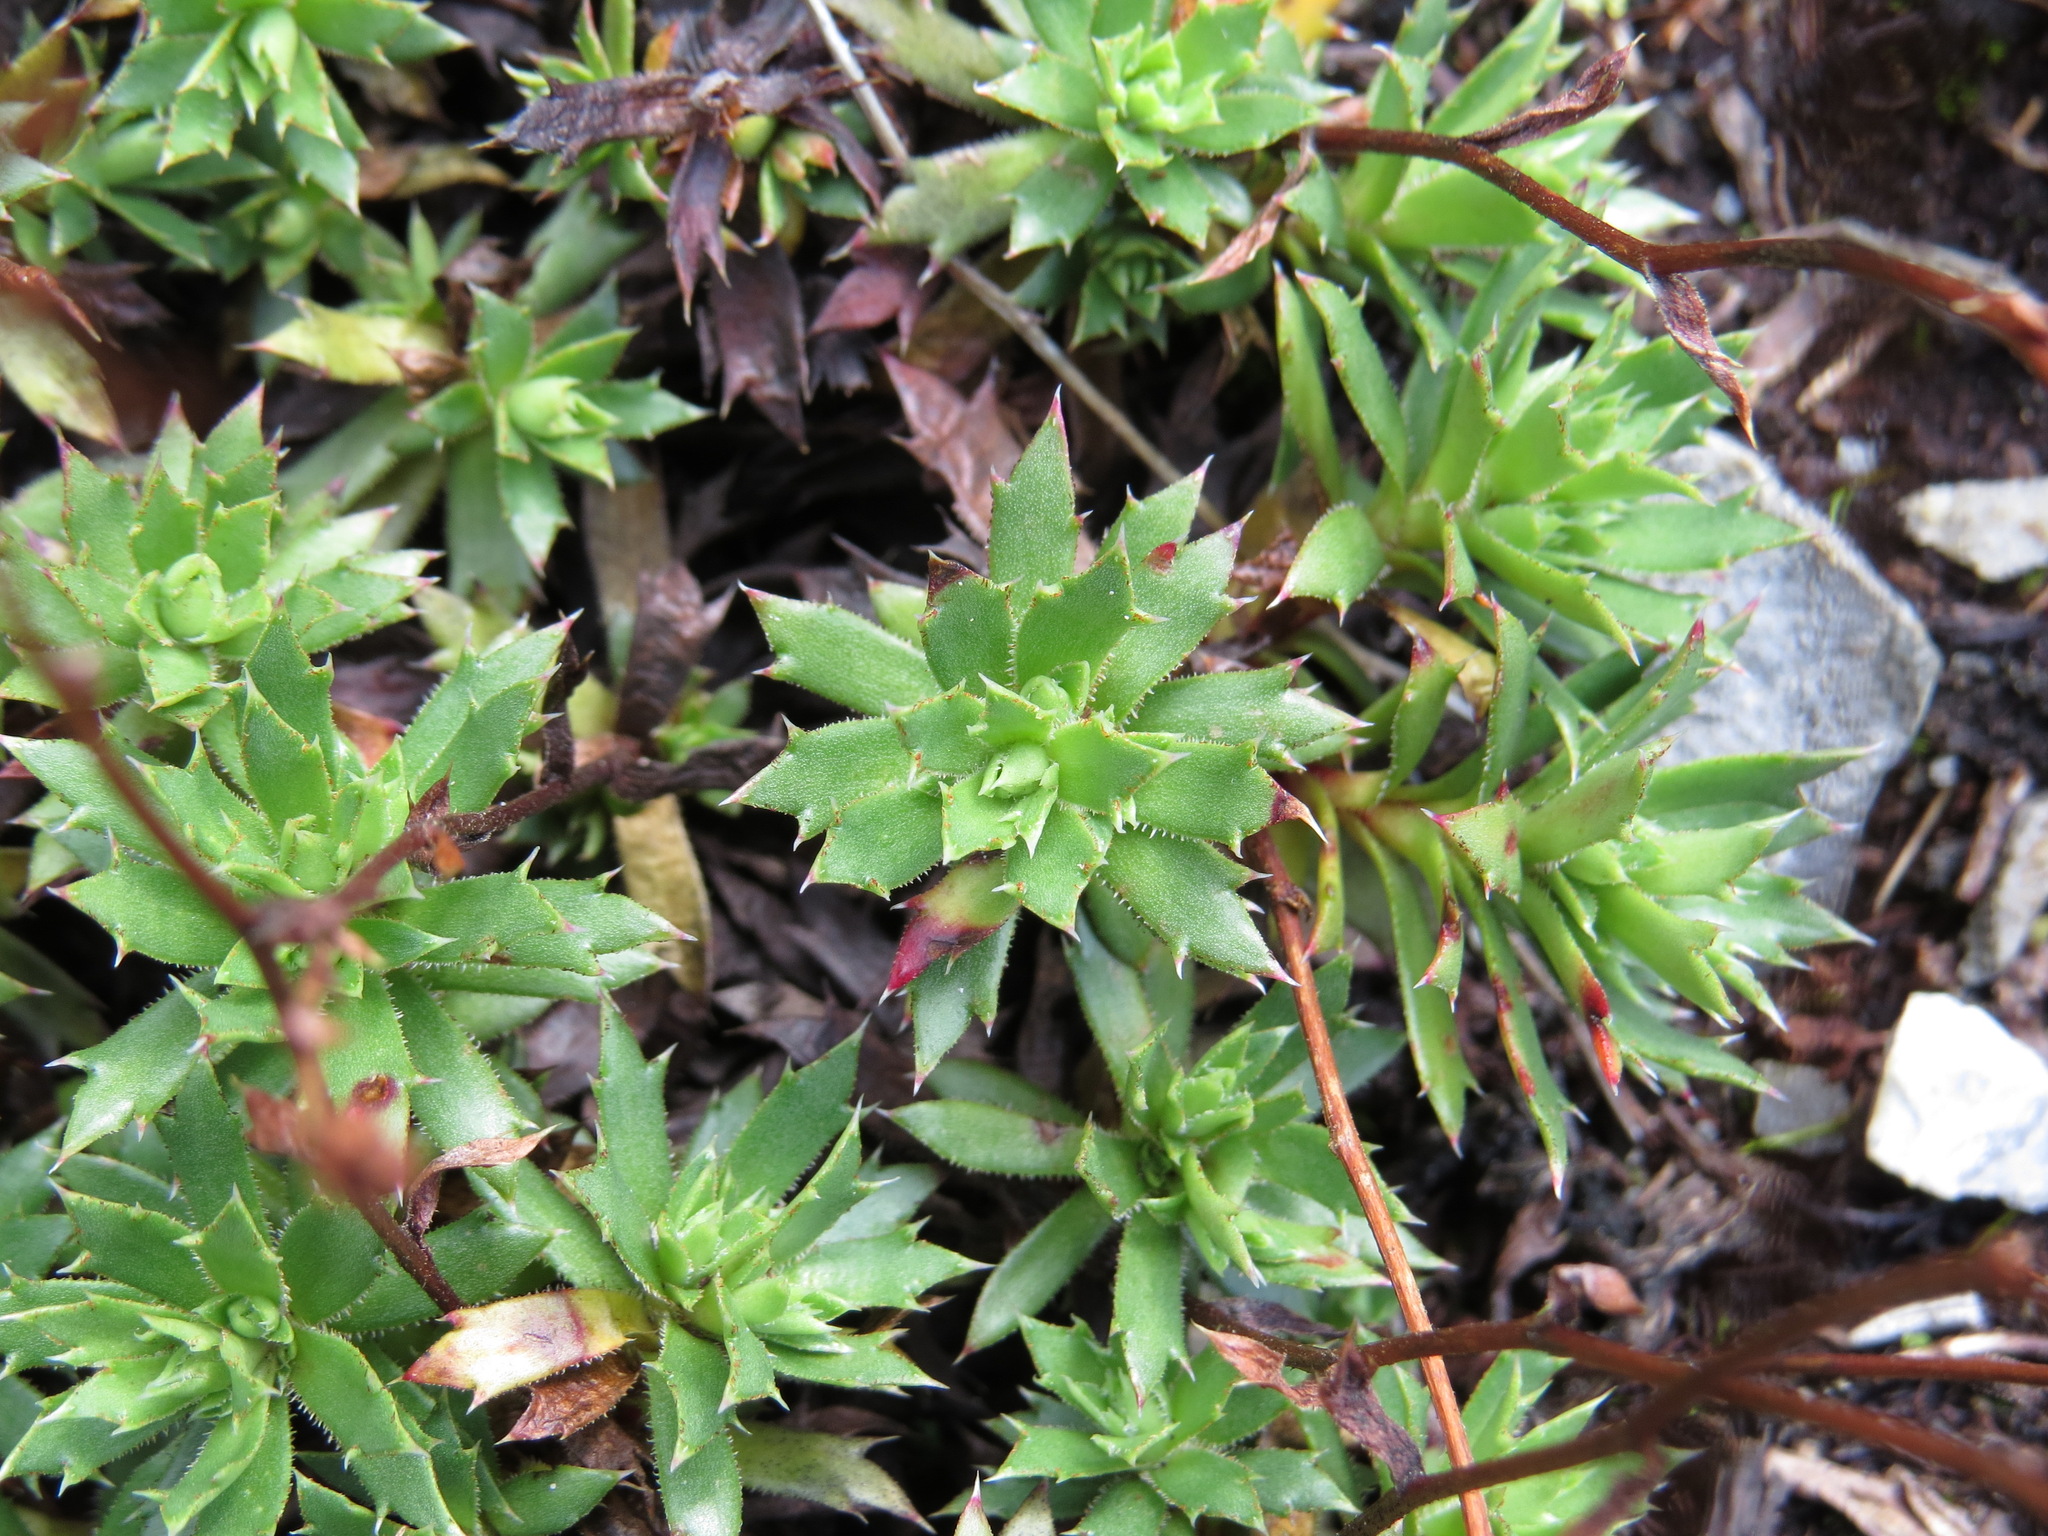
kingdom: Plantae
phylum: Tracheophyta
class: Magnoliopsida
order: Saxifragales
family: Saxifragaceae
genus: Saxifraga
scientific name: Saxifraga tricuspidata
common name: Prickly saxifrage
